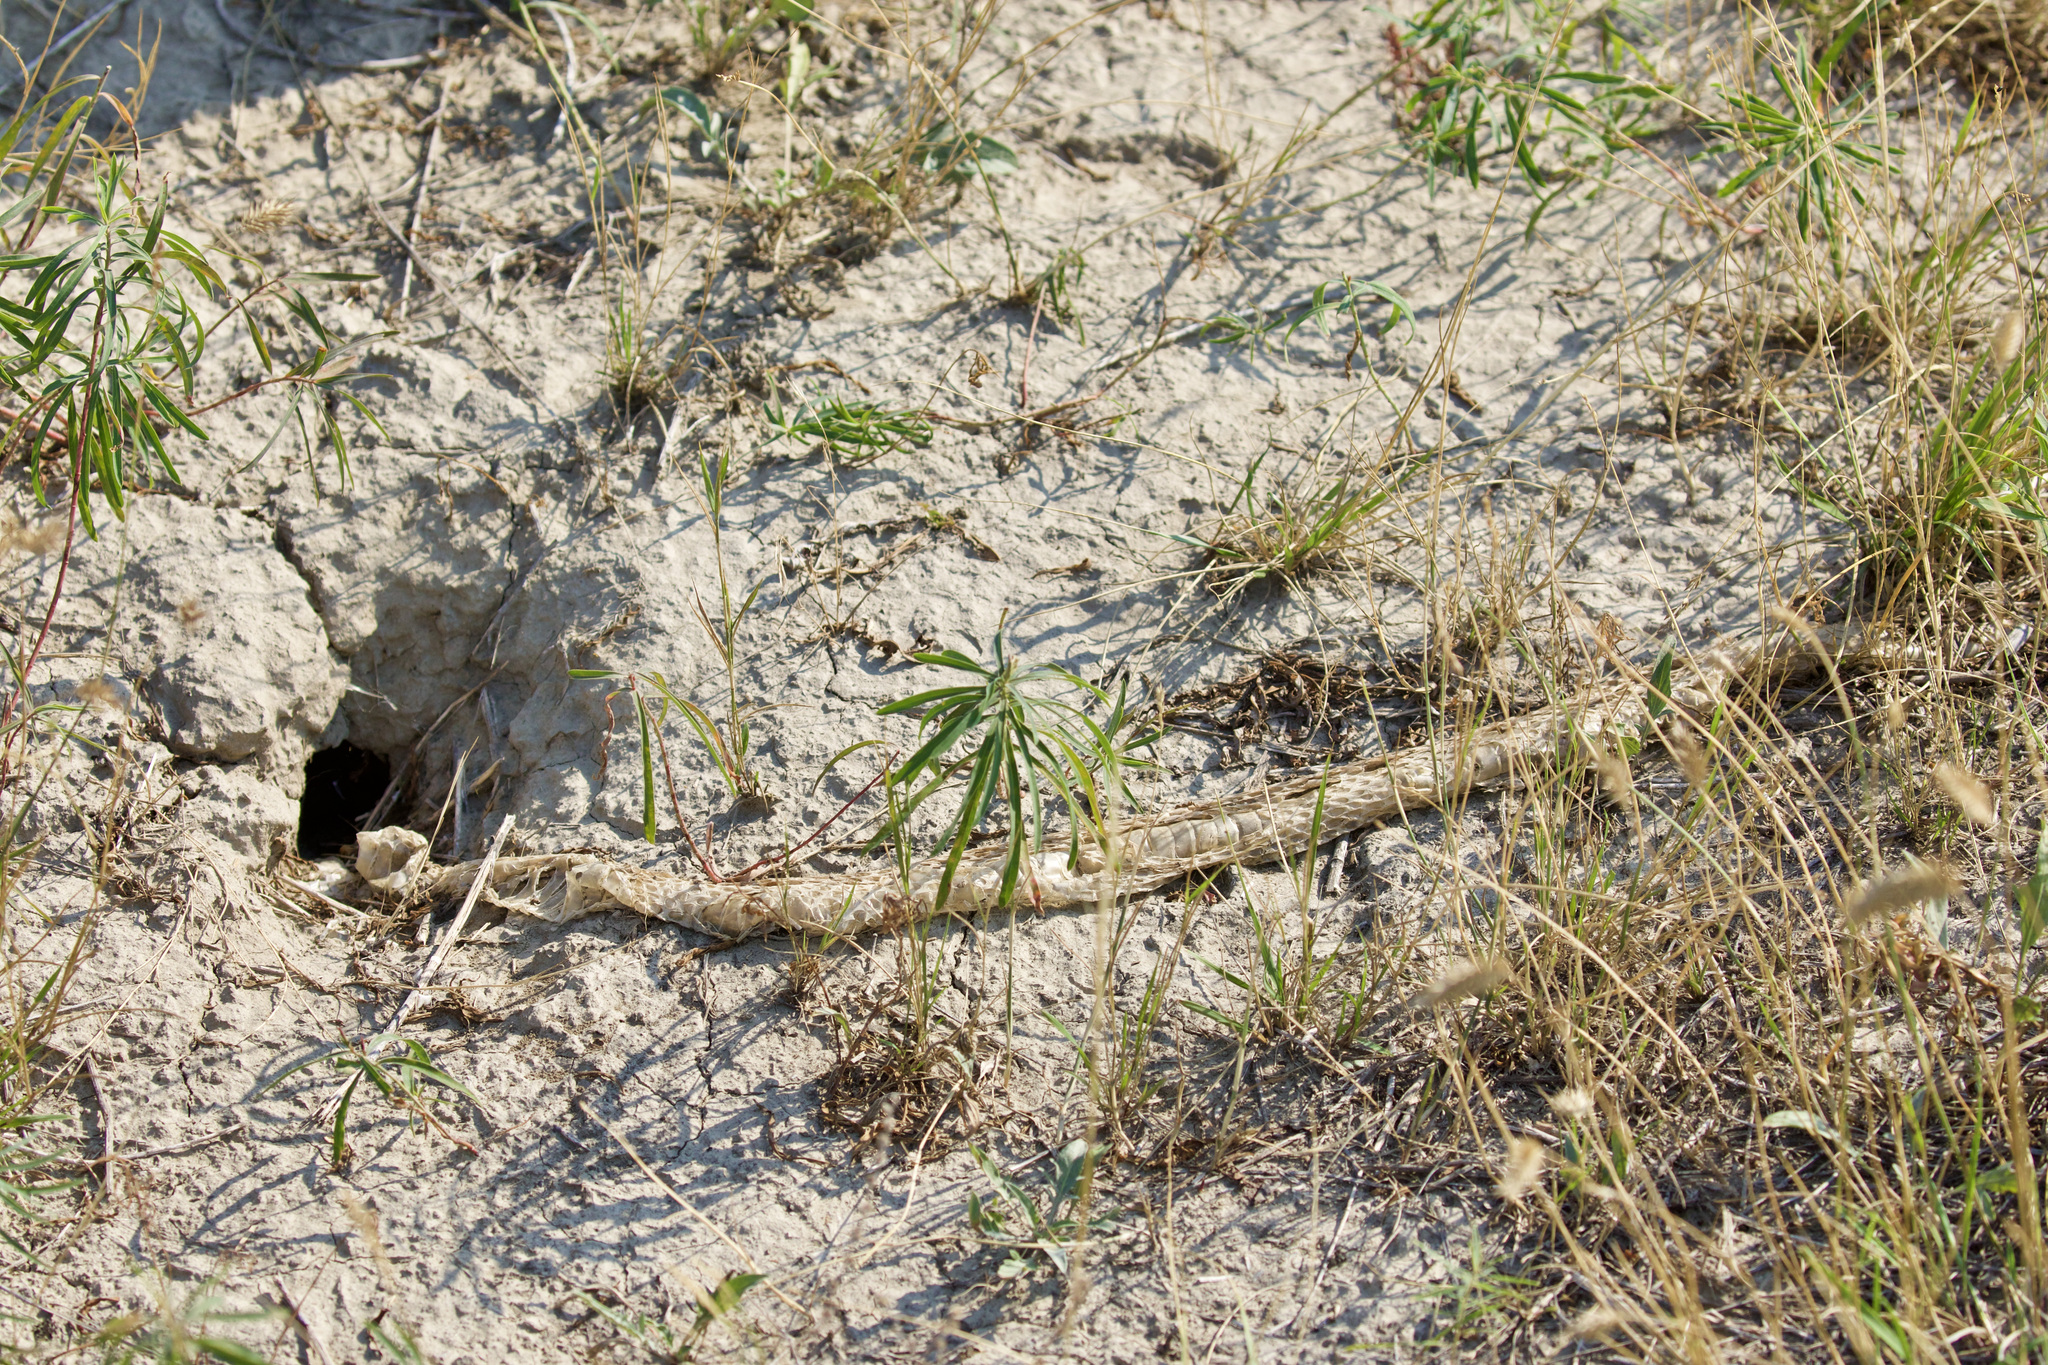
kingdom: Animalia
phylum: Chordata
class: Squamata
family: Viperidae
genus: Crotalus
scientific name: Crotalus viridis
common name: Prairie rattlesnake
